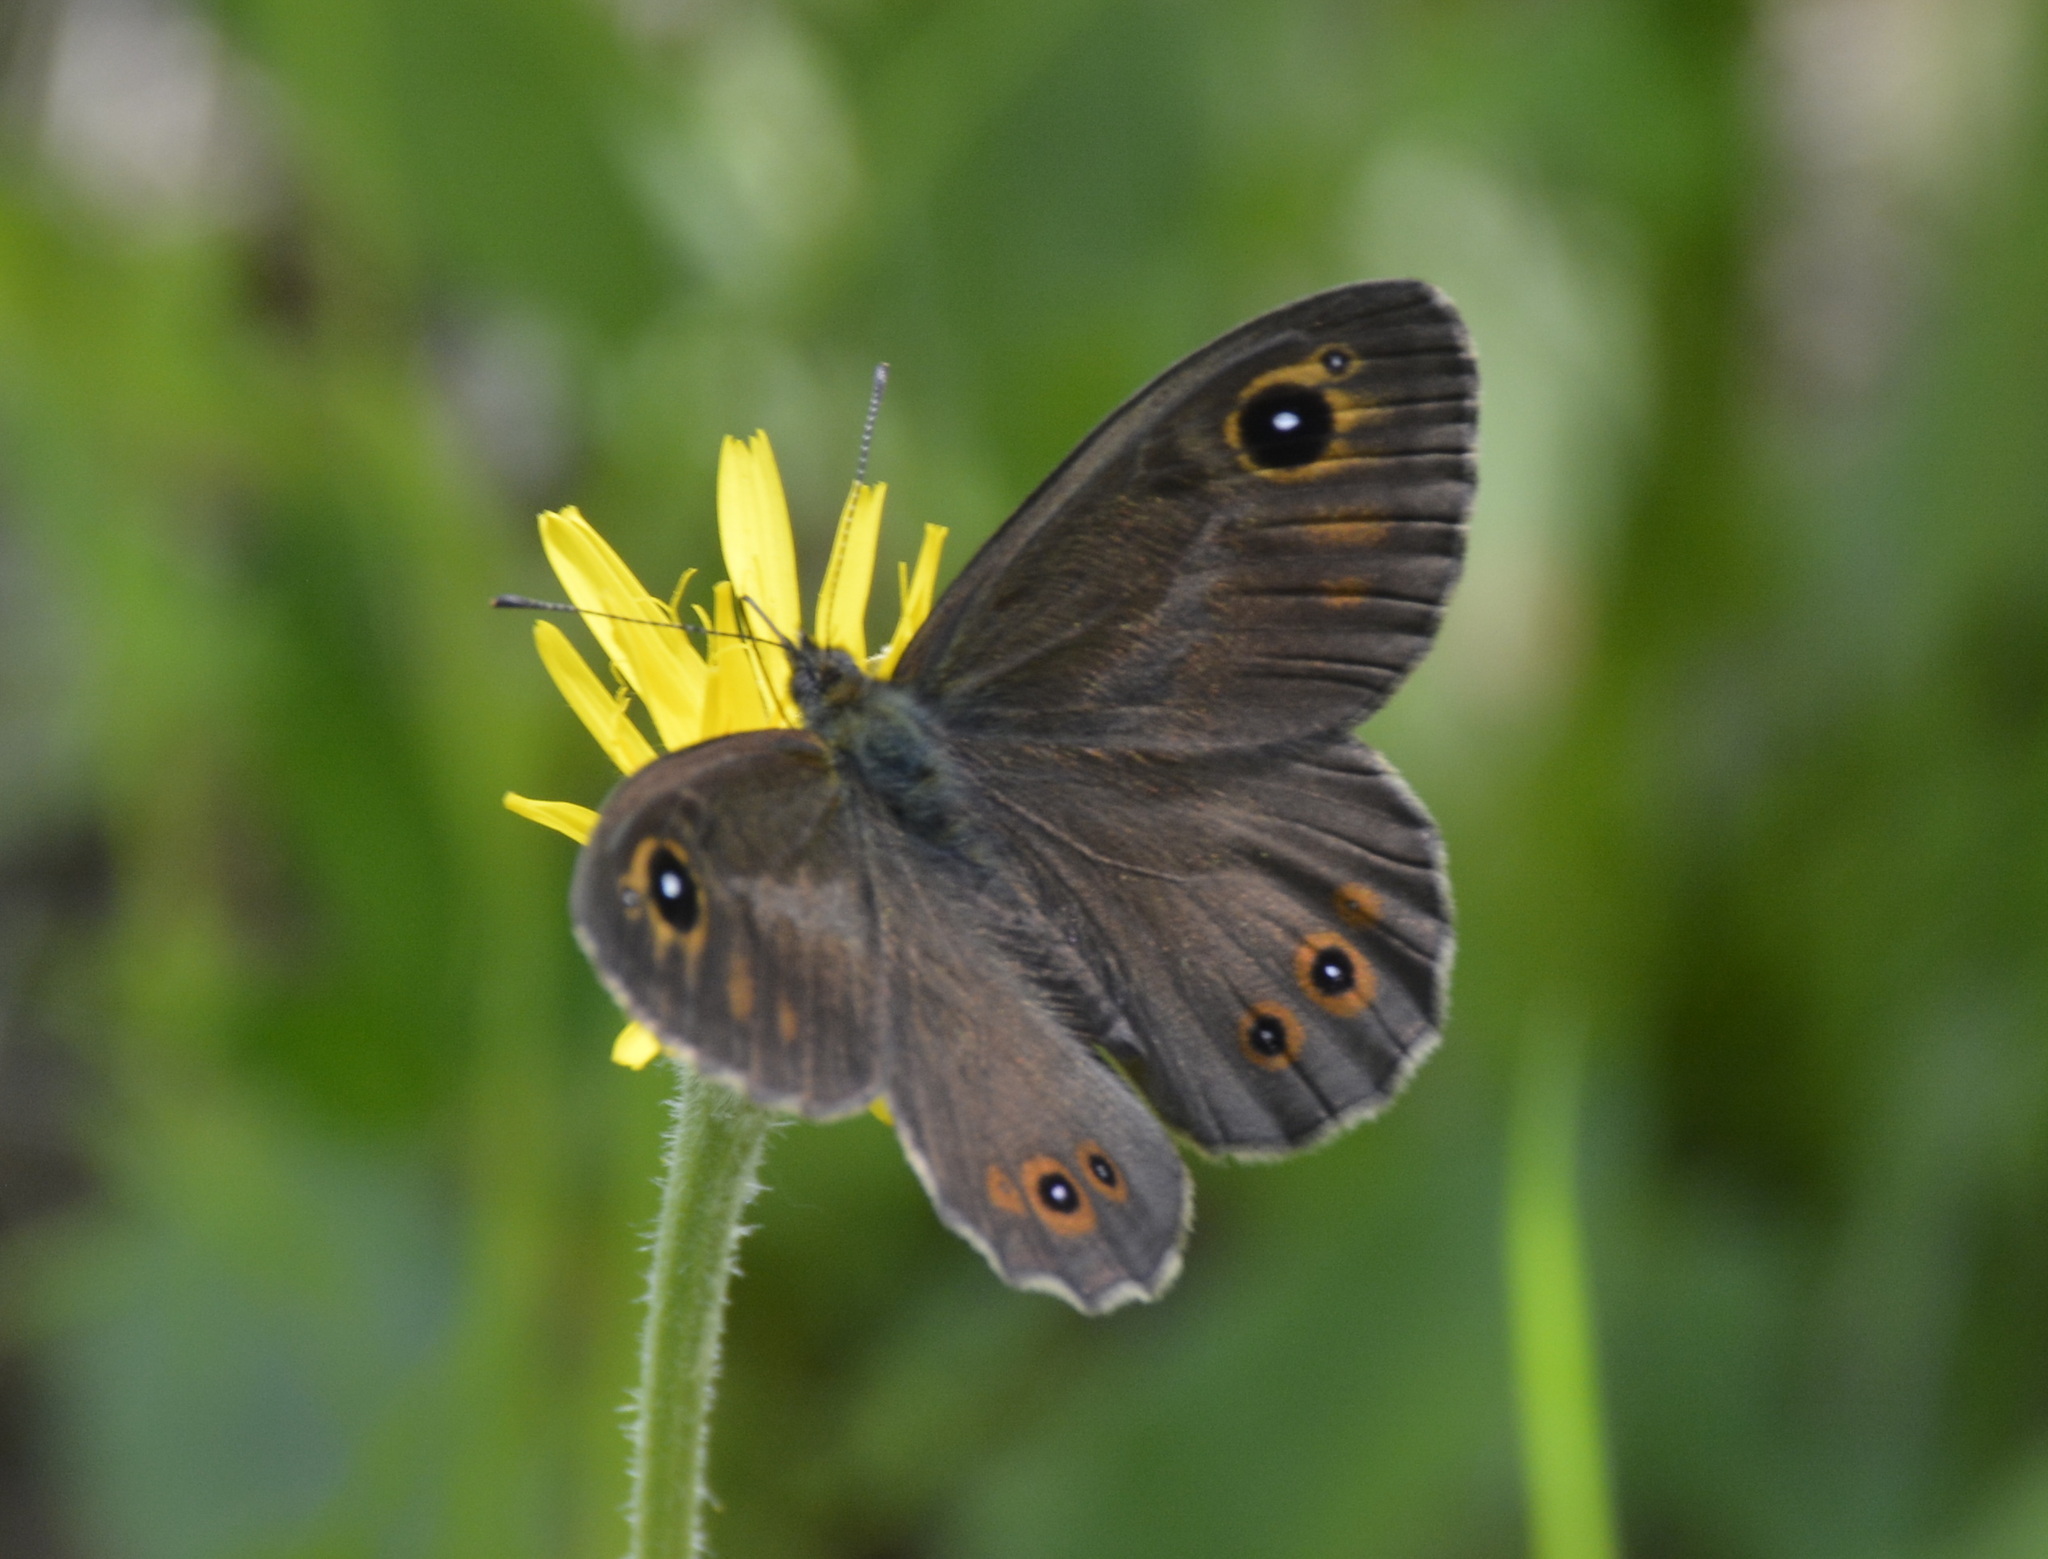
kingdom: Animalia
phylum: Arthropoda
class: Insecta
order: Lepidoptera
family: Nymphalidae
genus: Pararge
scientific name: Pararge Lasiommata maera
